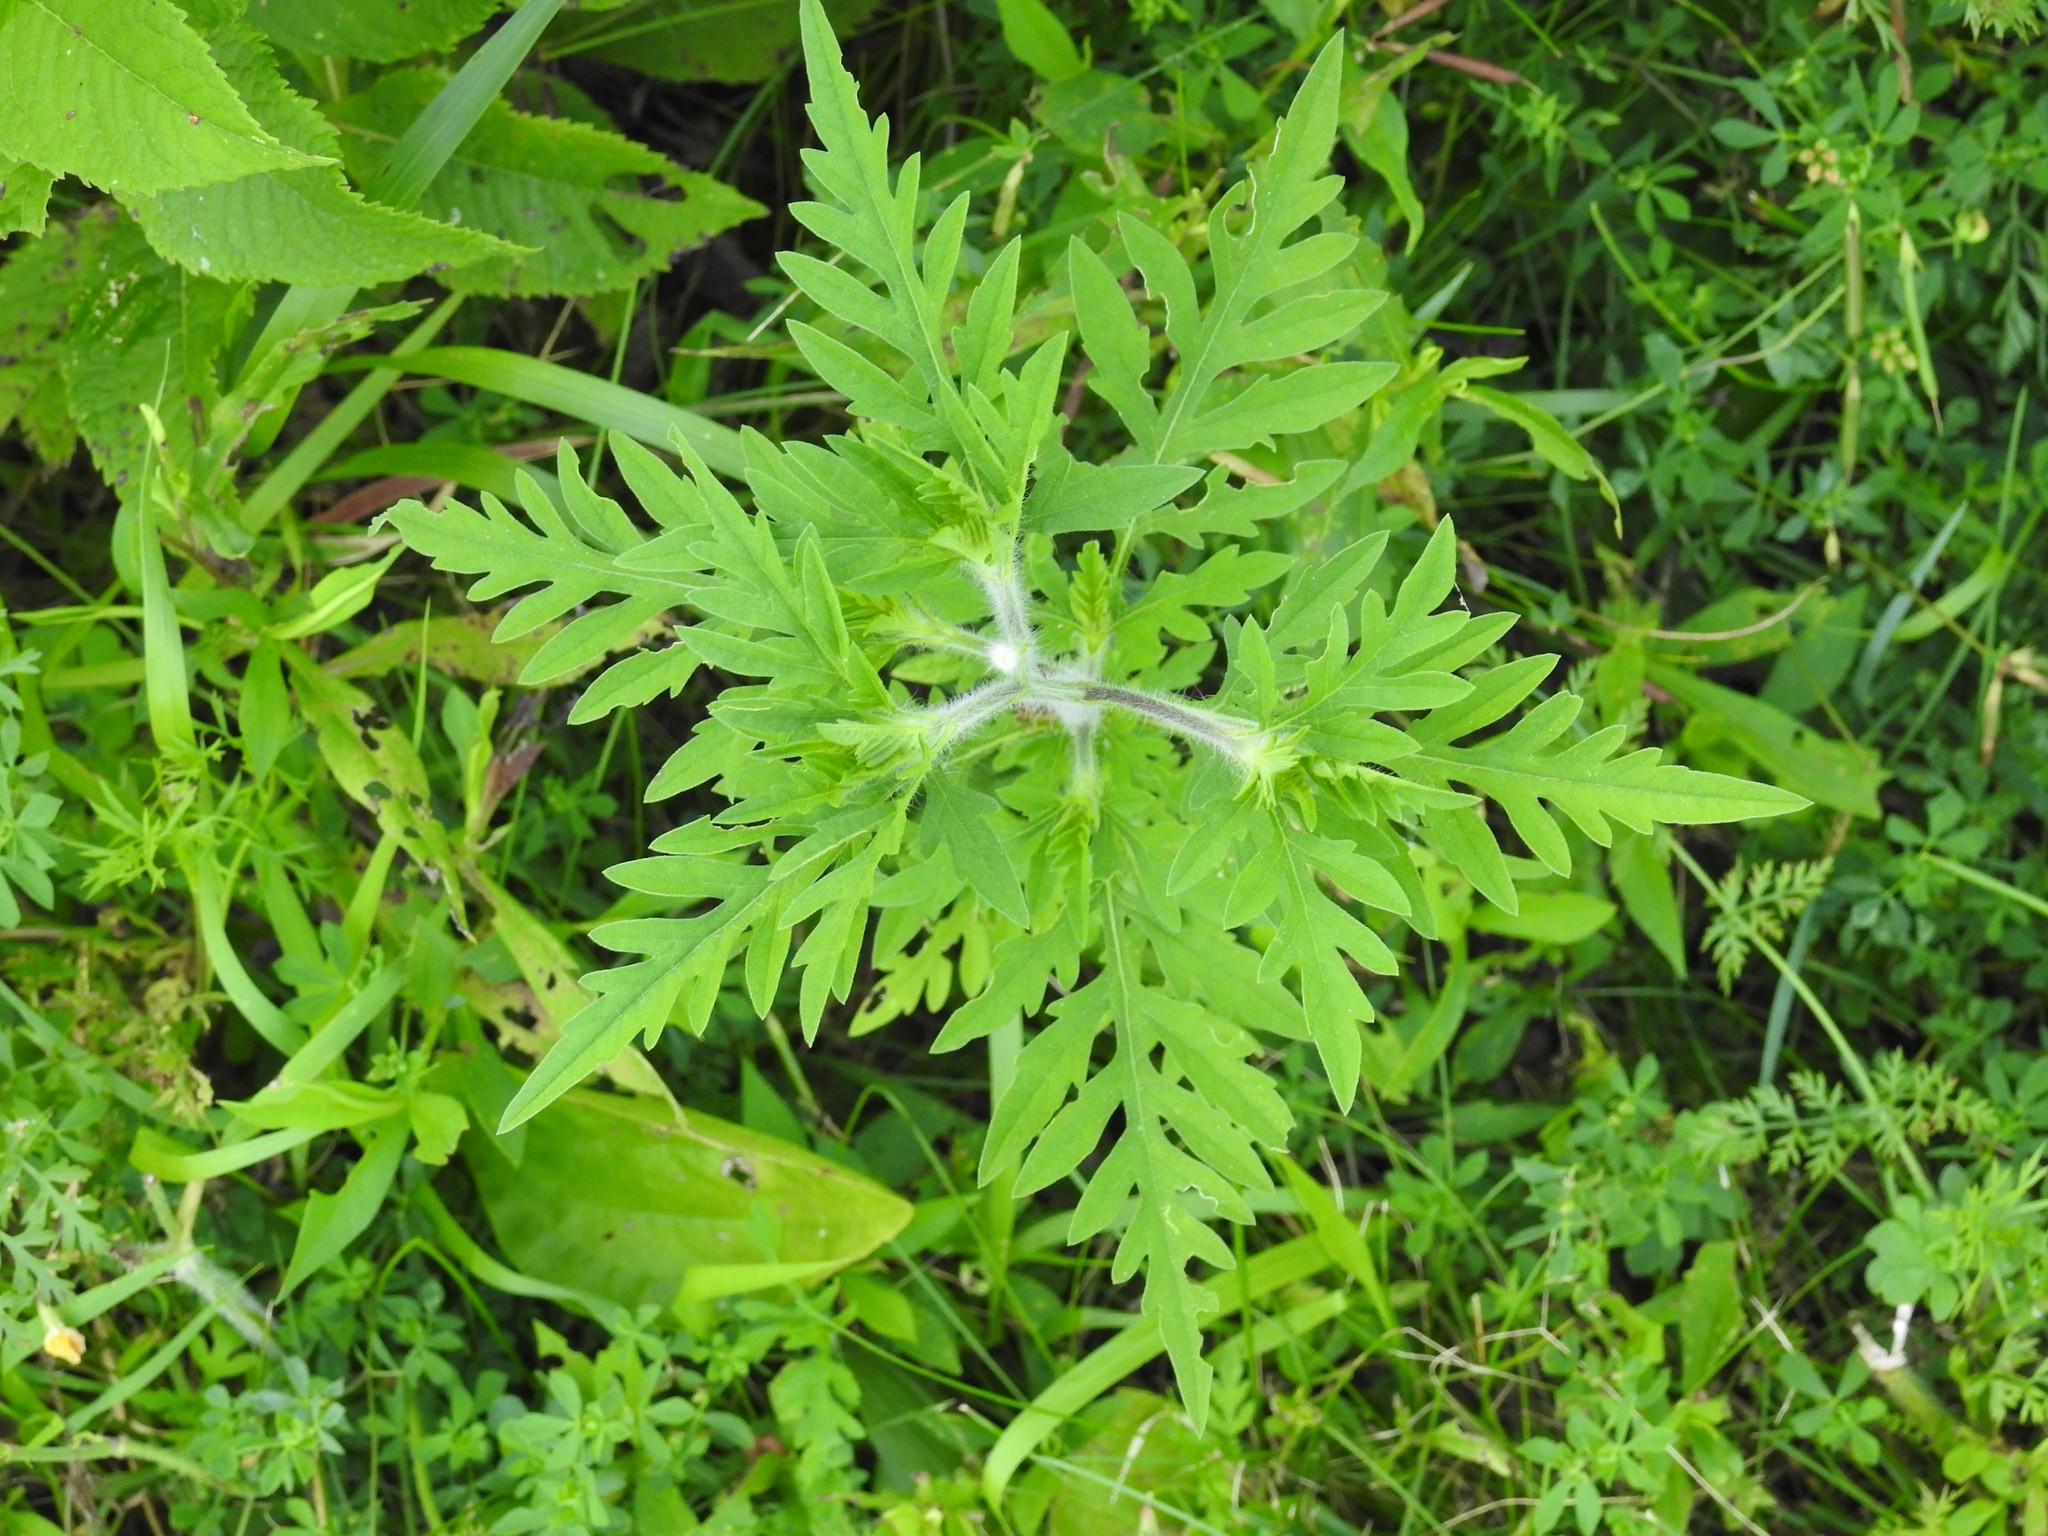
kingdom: Plantae
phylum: Tracheophyta
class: Magnoliopsida
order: Asterales
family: Asteraceae
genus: Ambrosia
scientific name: Ambrosia artemisiifolia
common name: Annual ragweed
